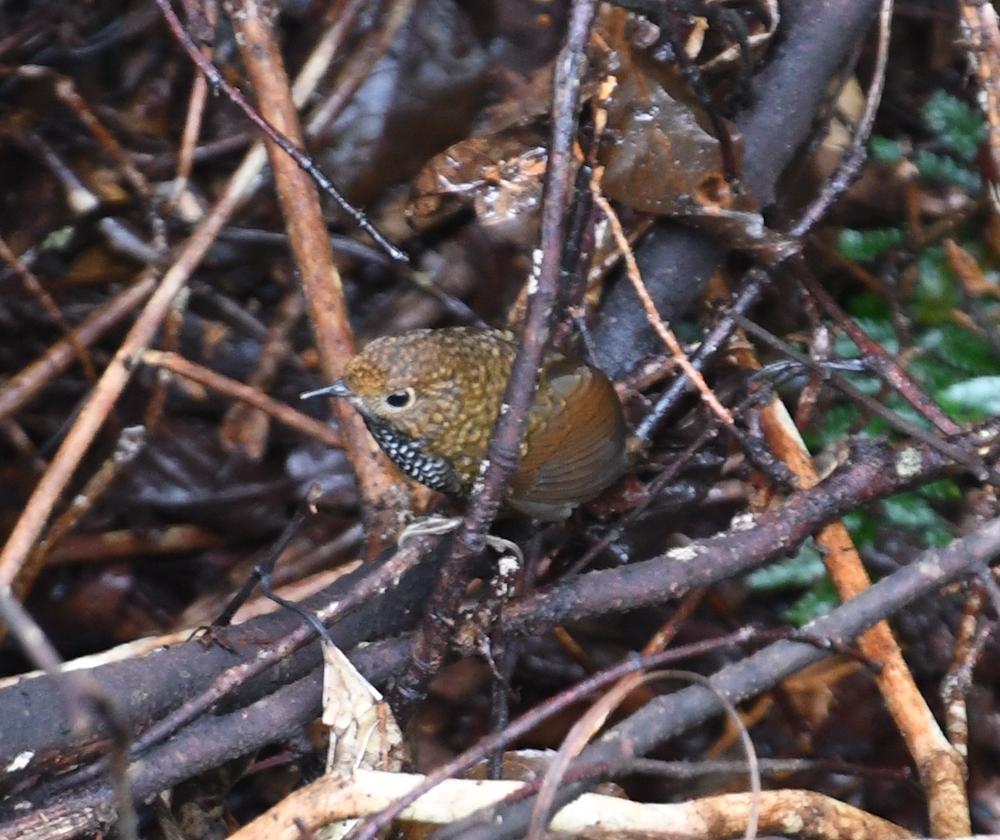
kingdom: Animalia
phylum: Chordata
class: Aves
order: Passeriformes
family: Pnoepygidae
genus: Pnoepyga
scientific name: Pnoepyga formosana
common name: Taiwan cupwing
